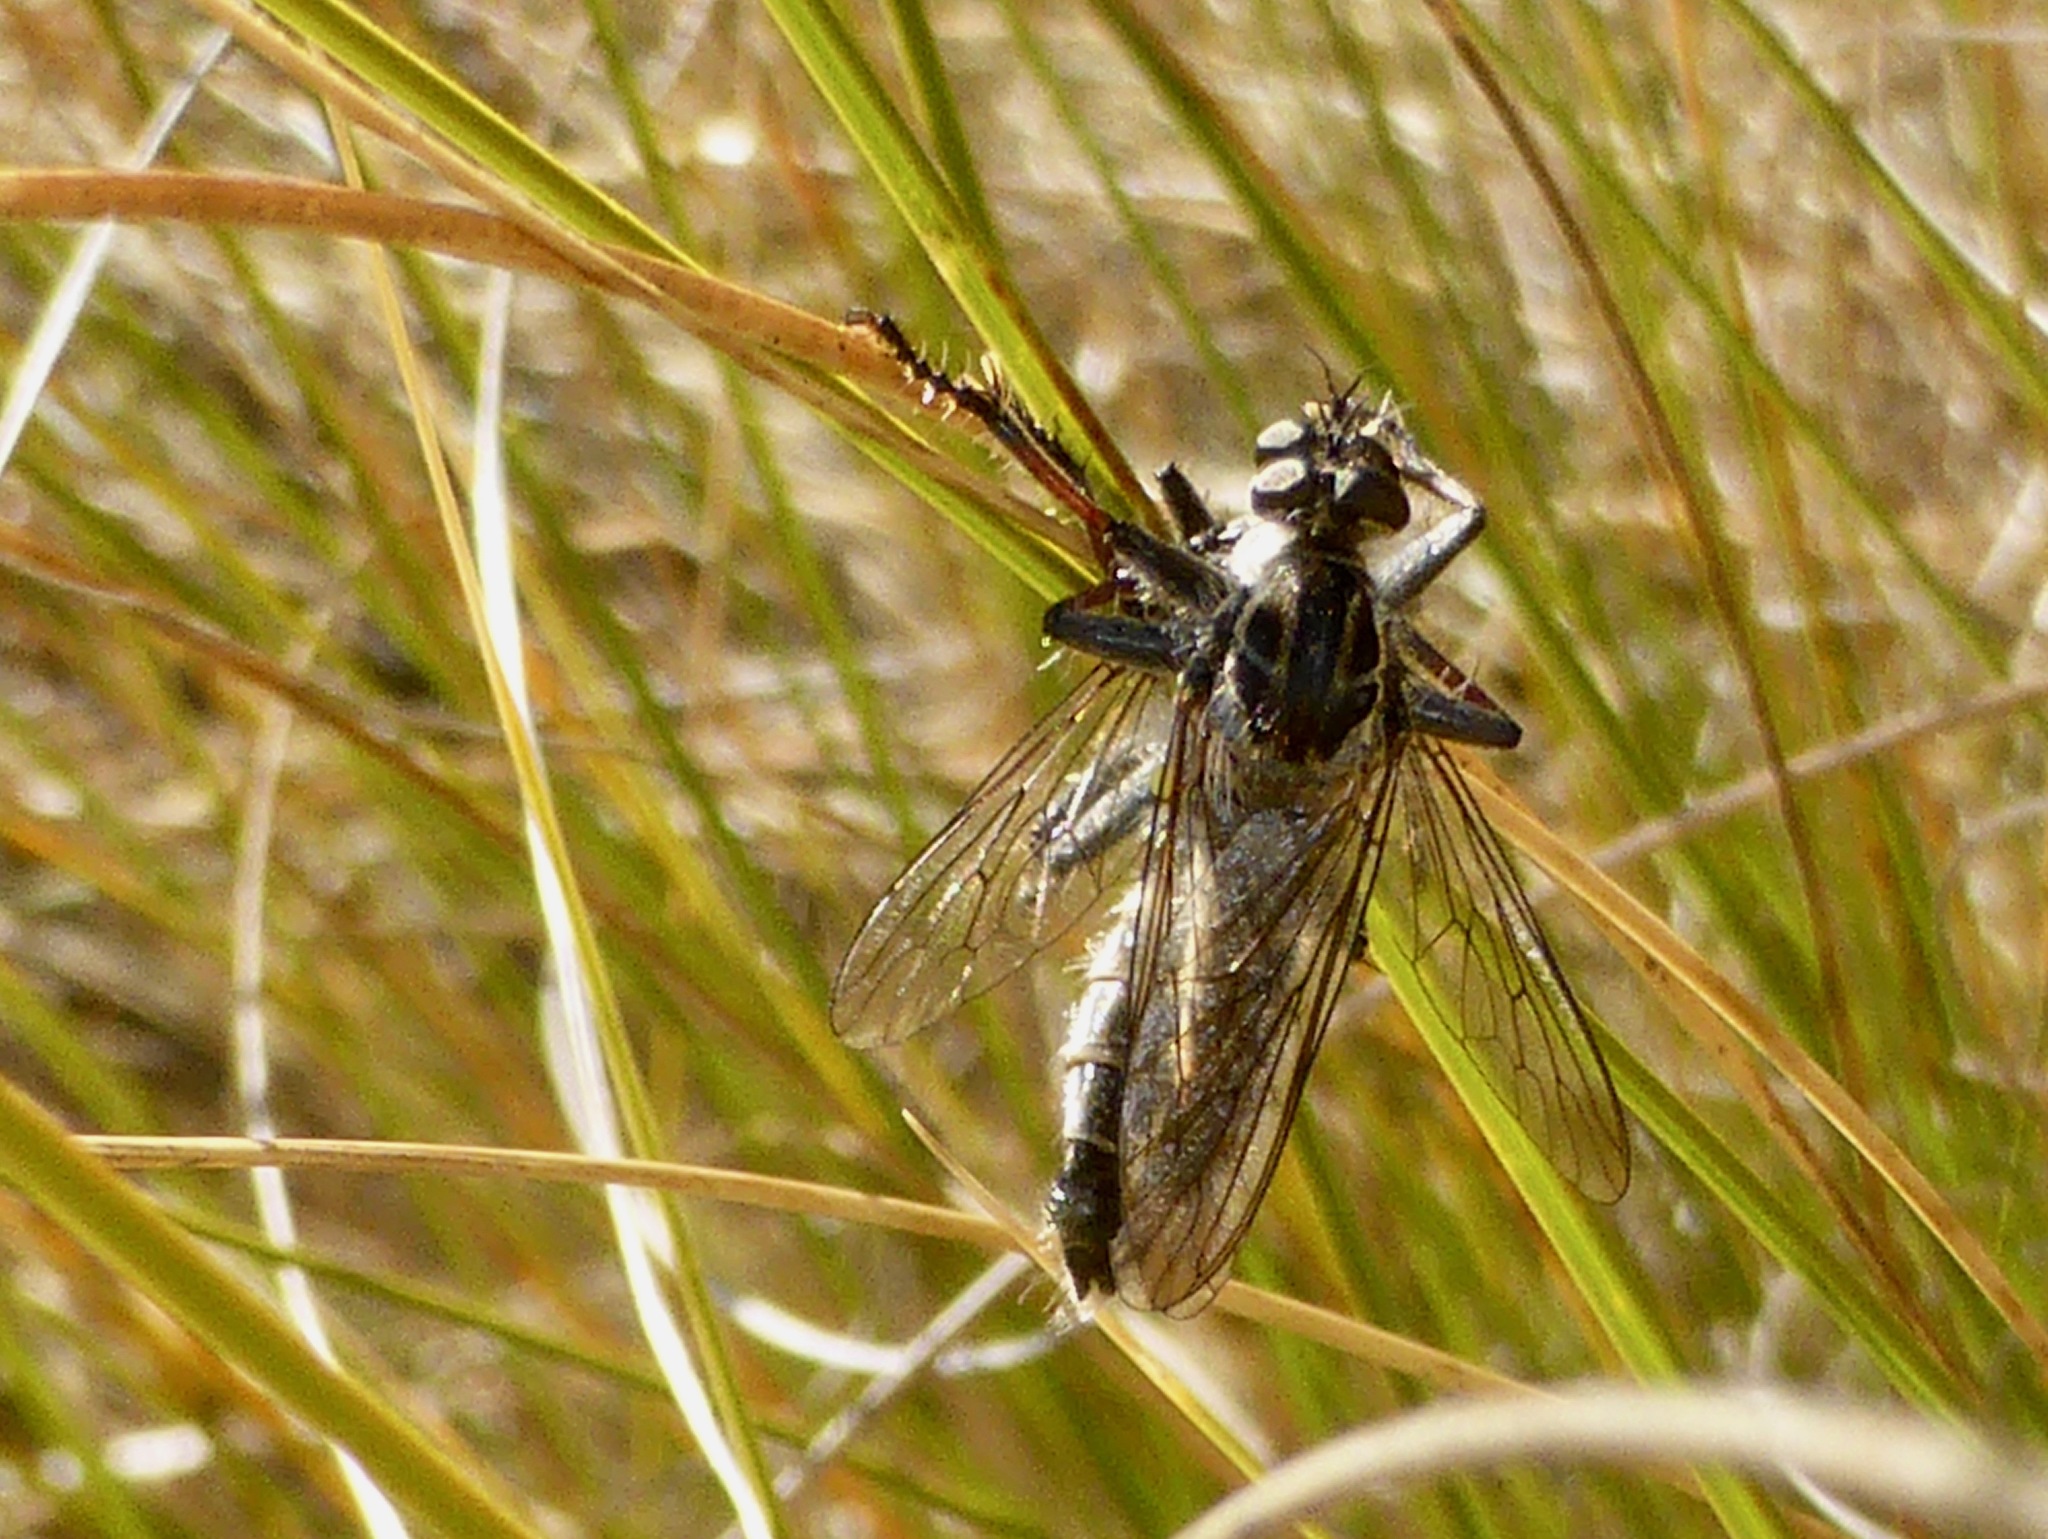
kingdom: Animalia
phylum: Arthropoda
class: Insecta
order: Diptera
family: Asilidae
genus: Neoitamus
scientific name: Neoitamus melanopogon
